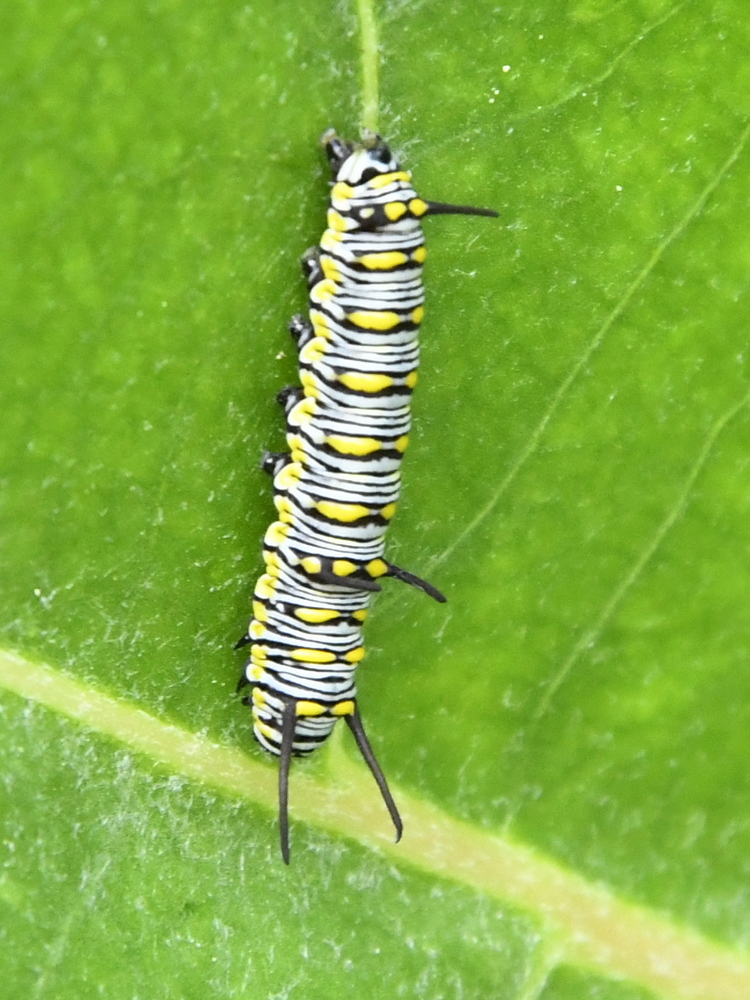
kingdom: Animalia
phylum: Arthropoda
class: Insecta
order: Lepidoptera
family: Nymphalidae
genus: Danaus
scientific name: Danaus chrysippus
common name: Plain tiger
